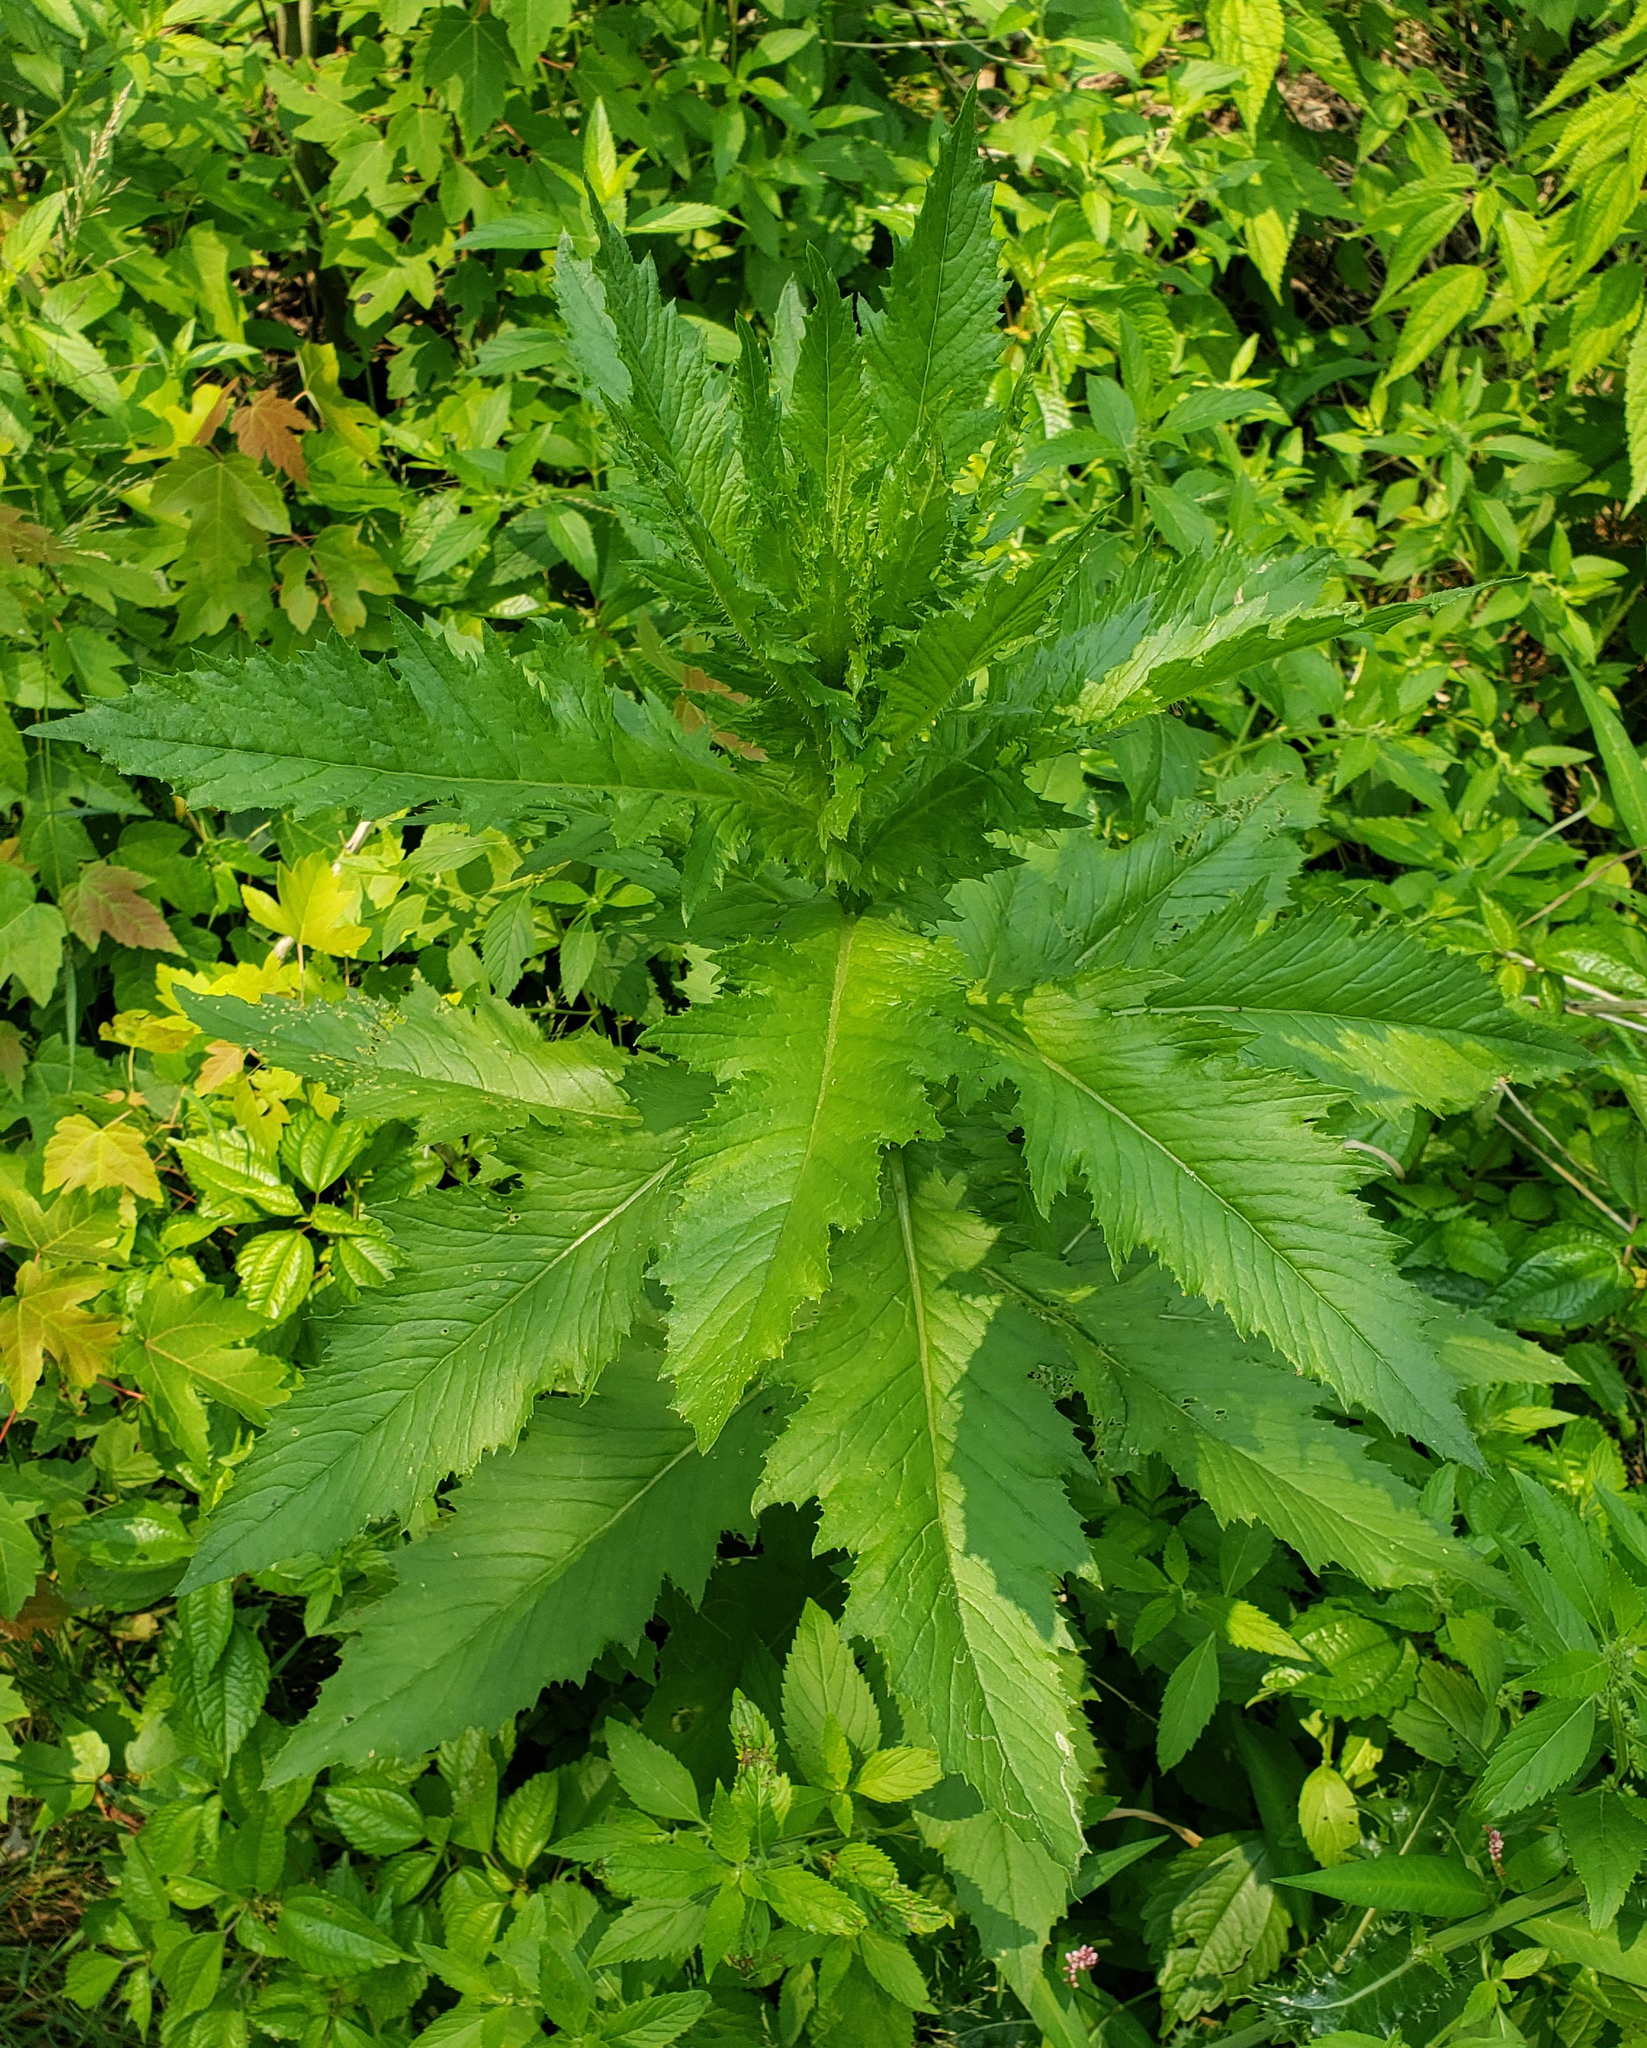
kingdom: Plantae
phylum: Tracheophyta
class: Magnoliopsida
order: Asterales
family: Asteraceae
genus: Erechtites
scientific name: Erechtites hieraciifolius
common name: American burnweed
